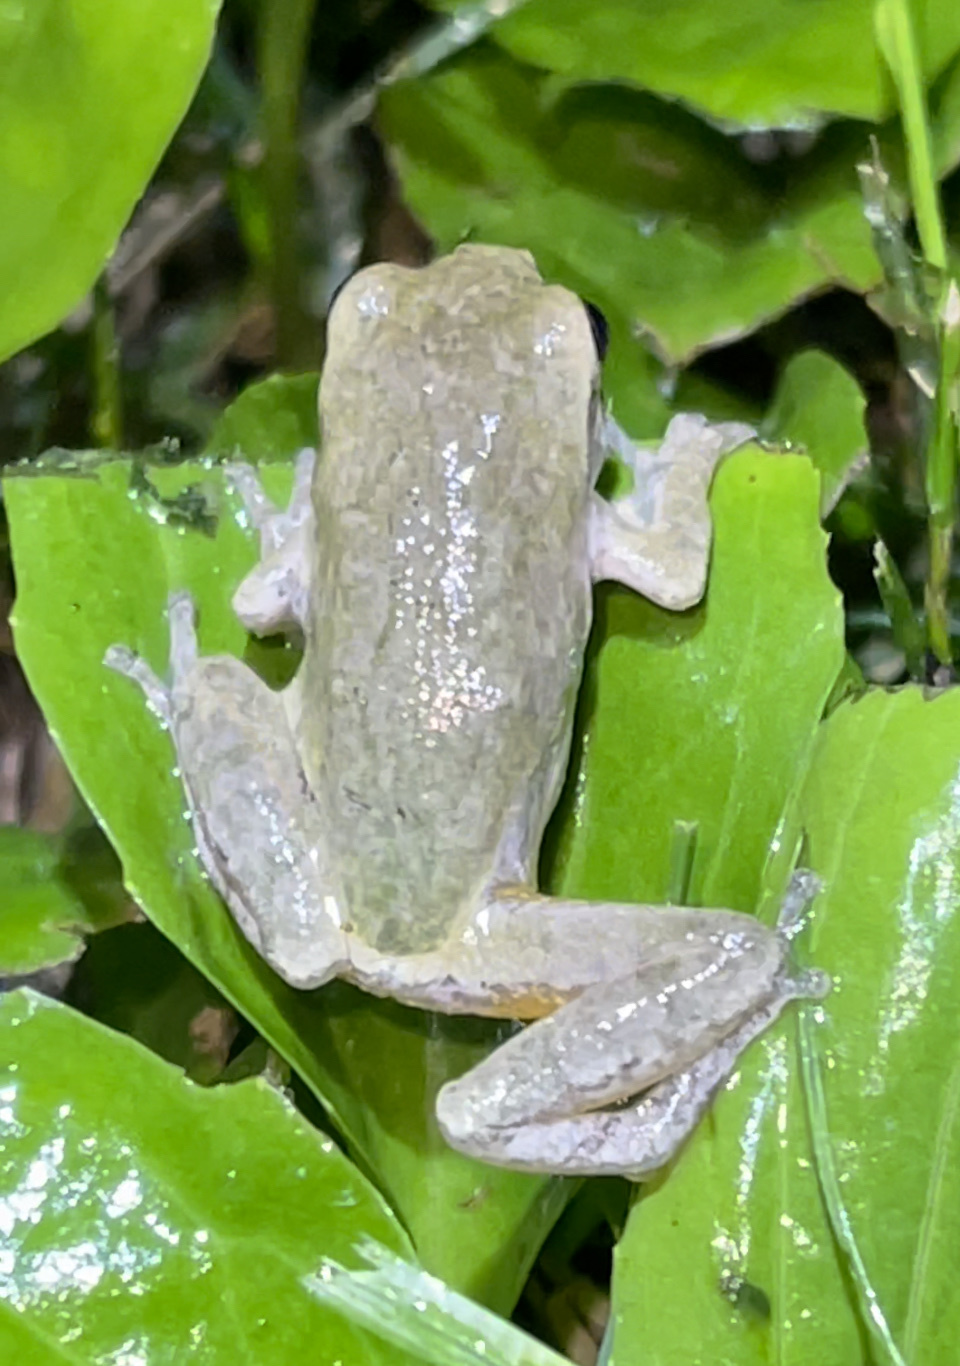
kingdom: Animalia
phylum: Chordata
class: Amphibia
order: Anura
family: Hylidae
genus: Hyla
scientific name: Hyla
